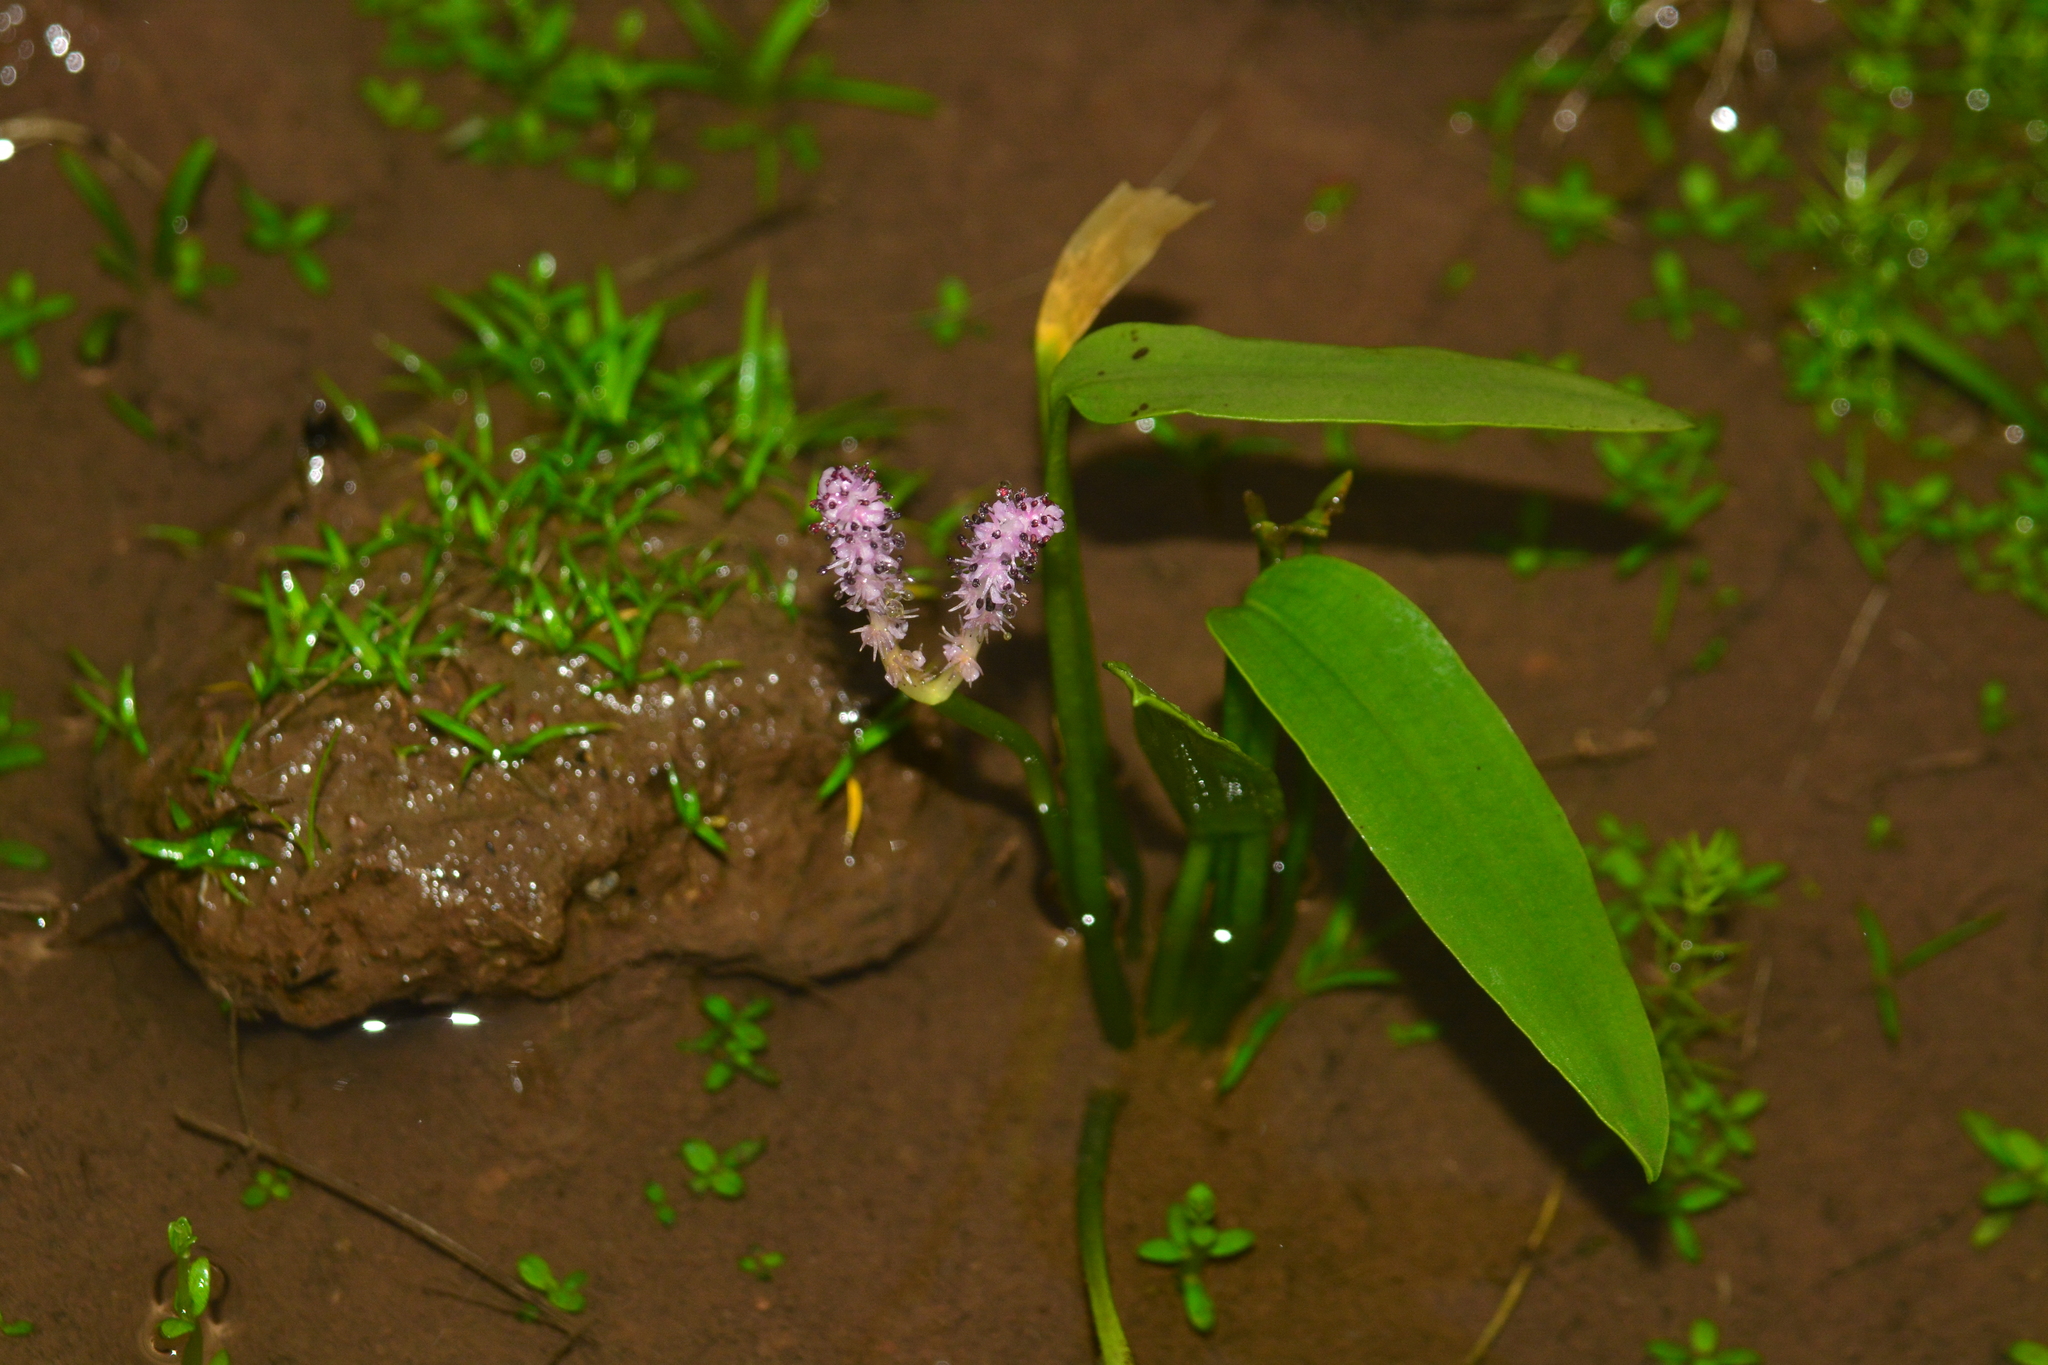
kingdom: Plantae
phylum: Tracheophyta
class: Liliopsida
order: Alismatales
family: Aponogetonaceae
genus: Aponogeton
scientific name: Aponogeton satarensis
